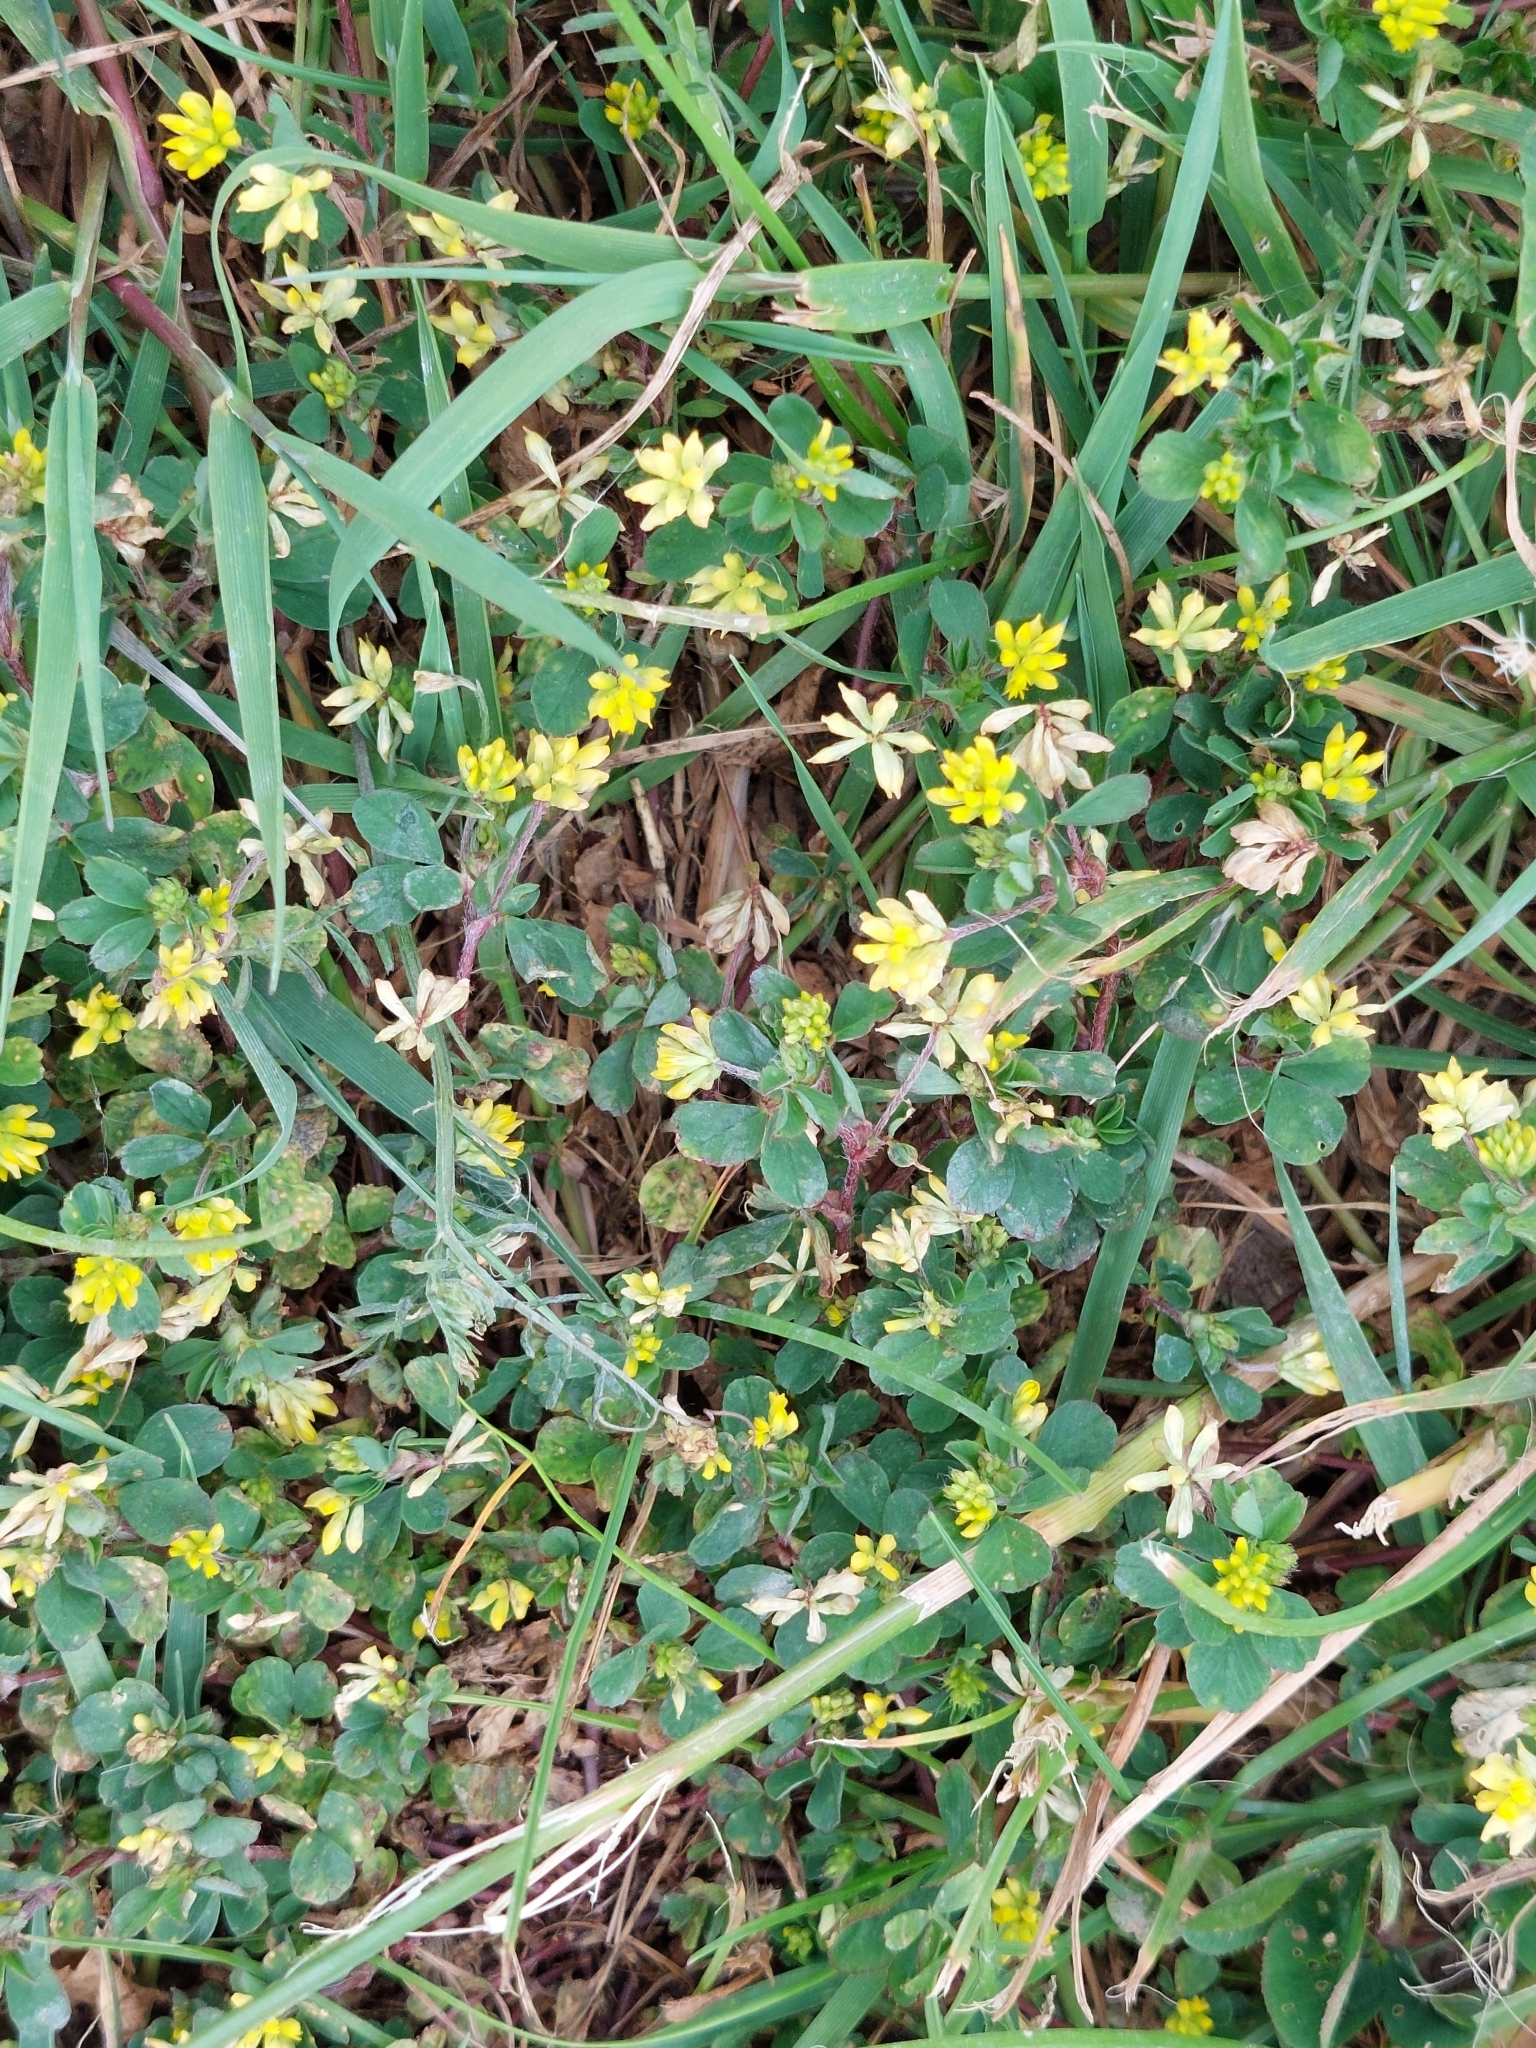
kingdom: Plantae
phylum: Tracheophyta
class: Magnoliopsida
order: Fabales
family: Fabaceae
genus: Trifolium
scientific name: Trifolium dubium
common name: Suckling clover
